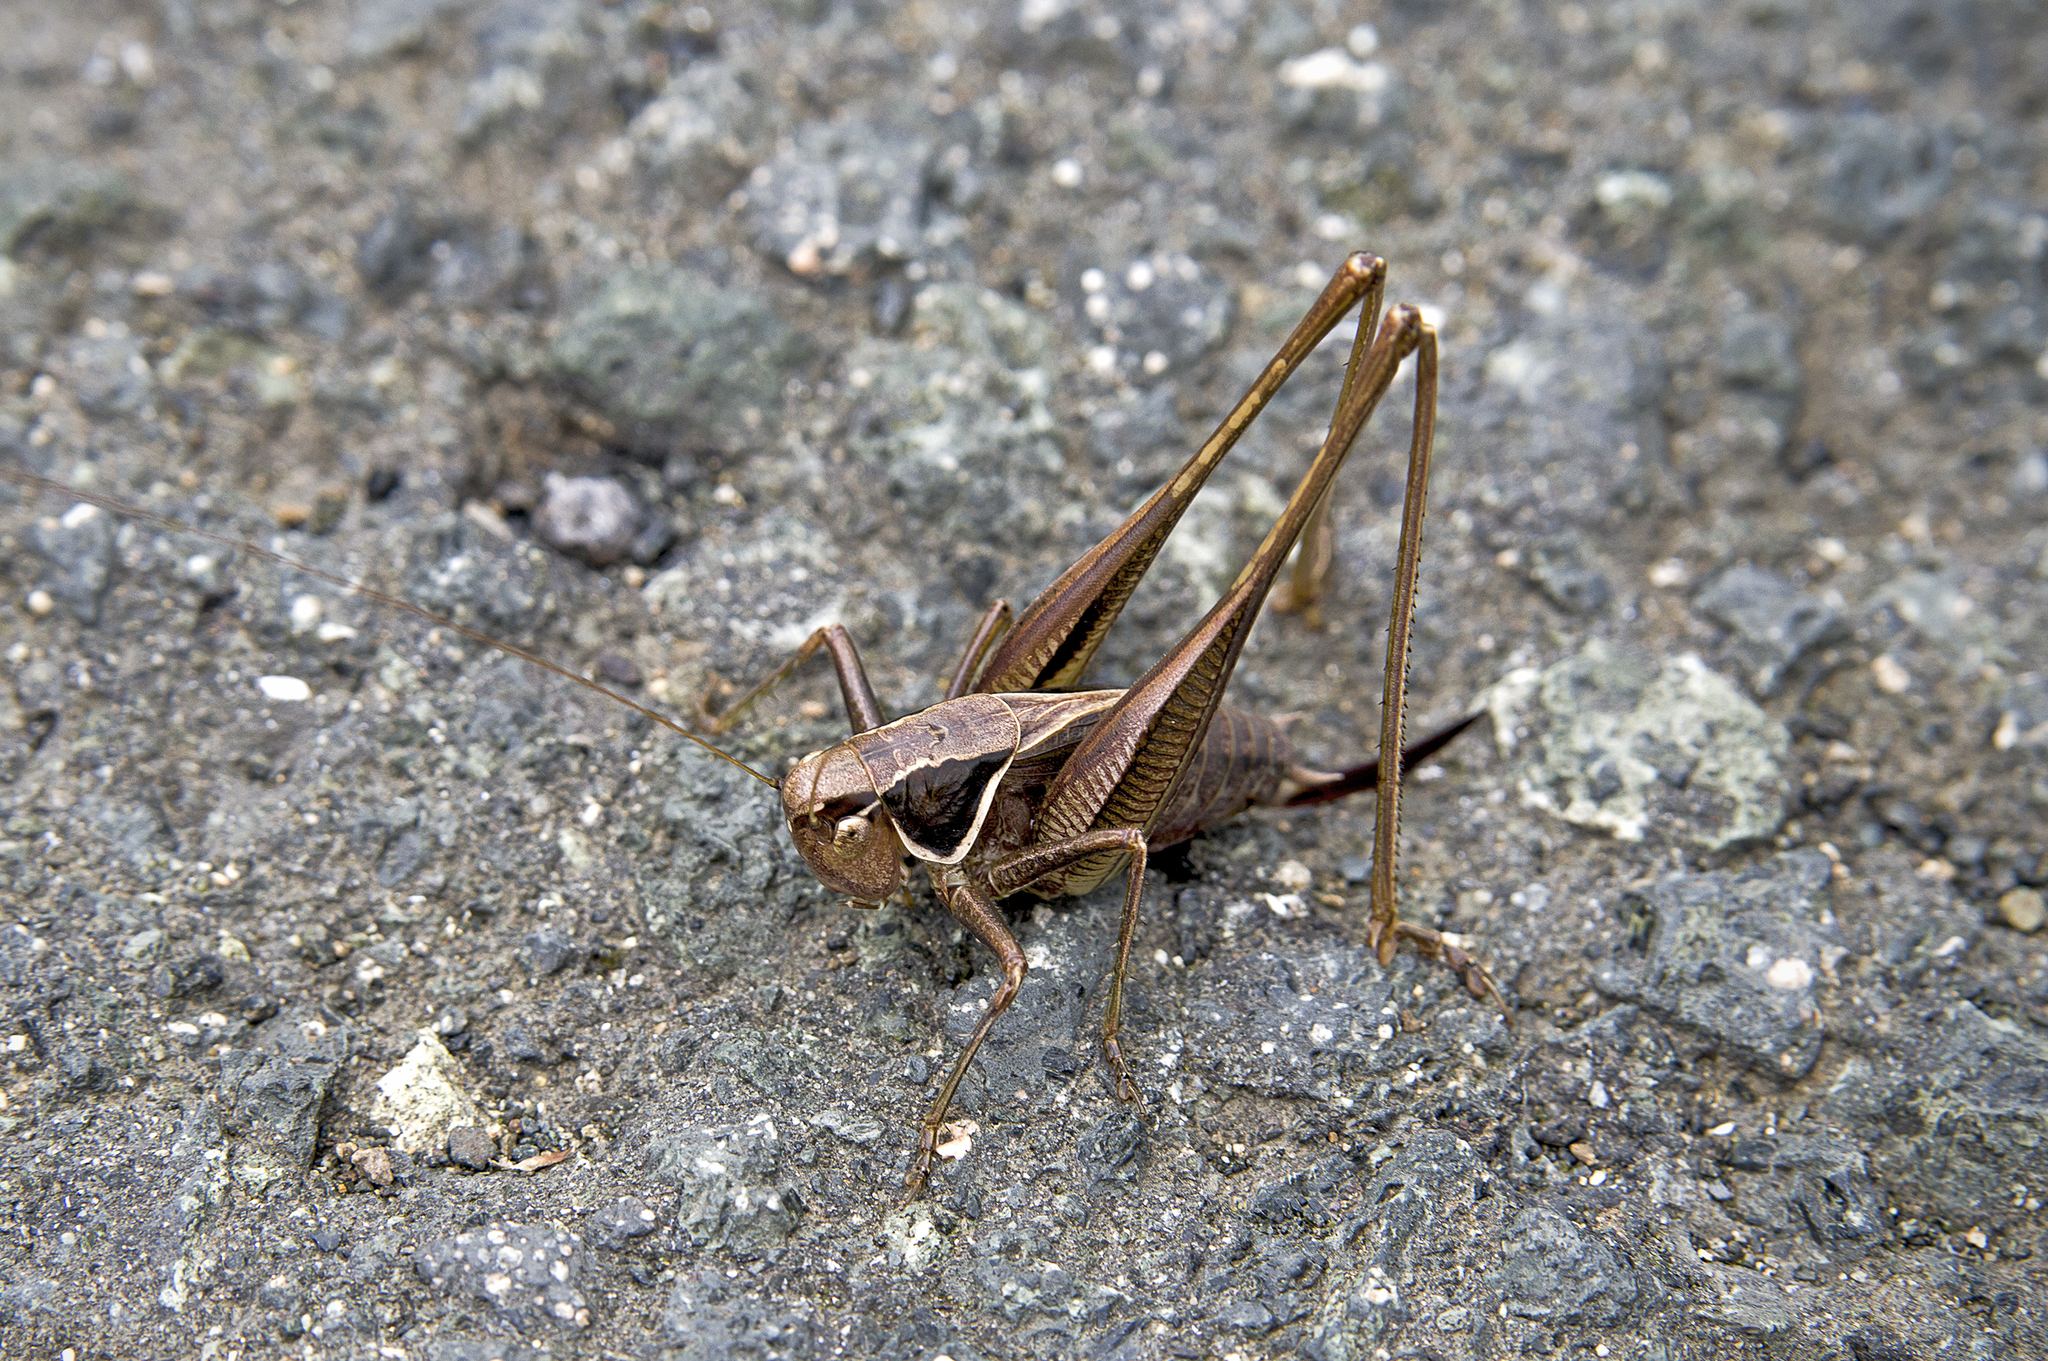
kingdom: Animalia
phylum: Arthropoda
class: Insecta
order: Orthoptera
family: Tettigoniidae
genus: Sepiana
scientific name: Sepiana sepium
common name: Sepia bush-cricket
